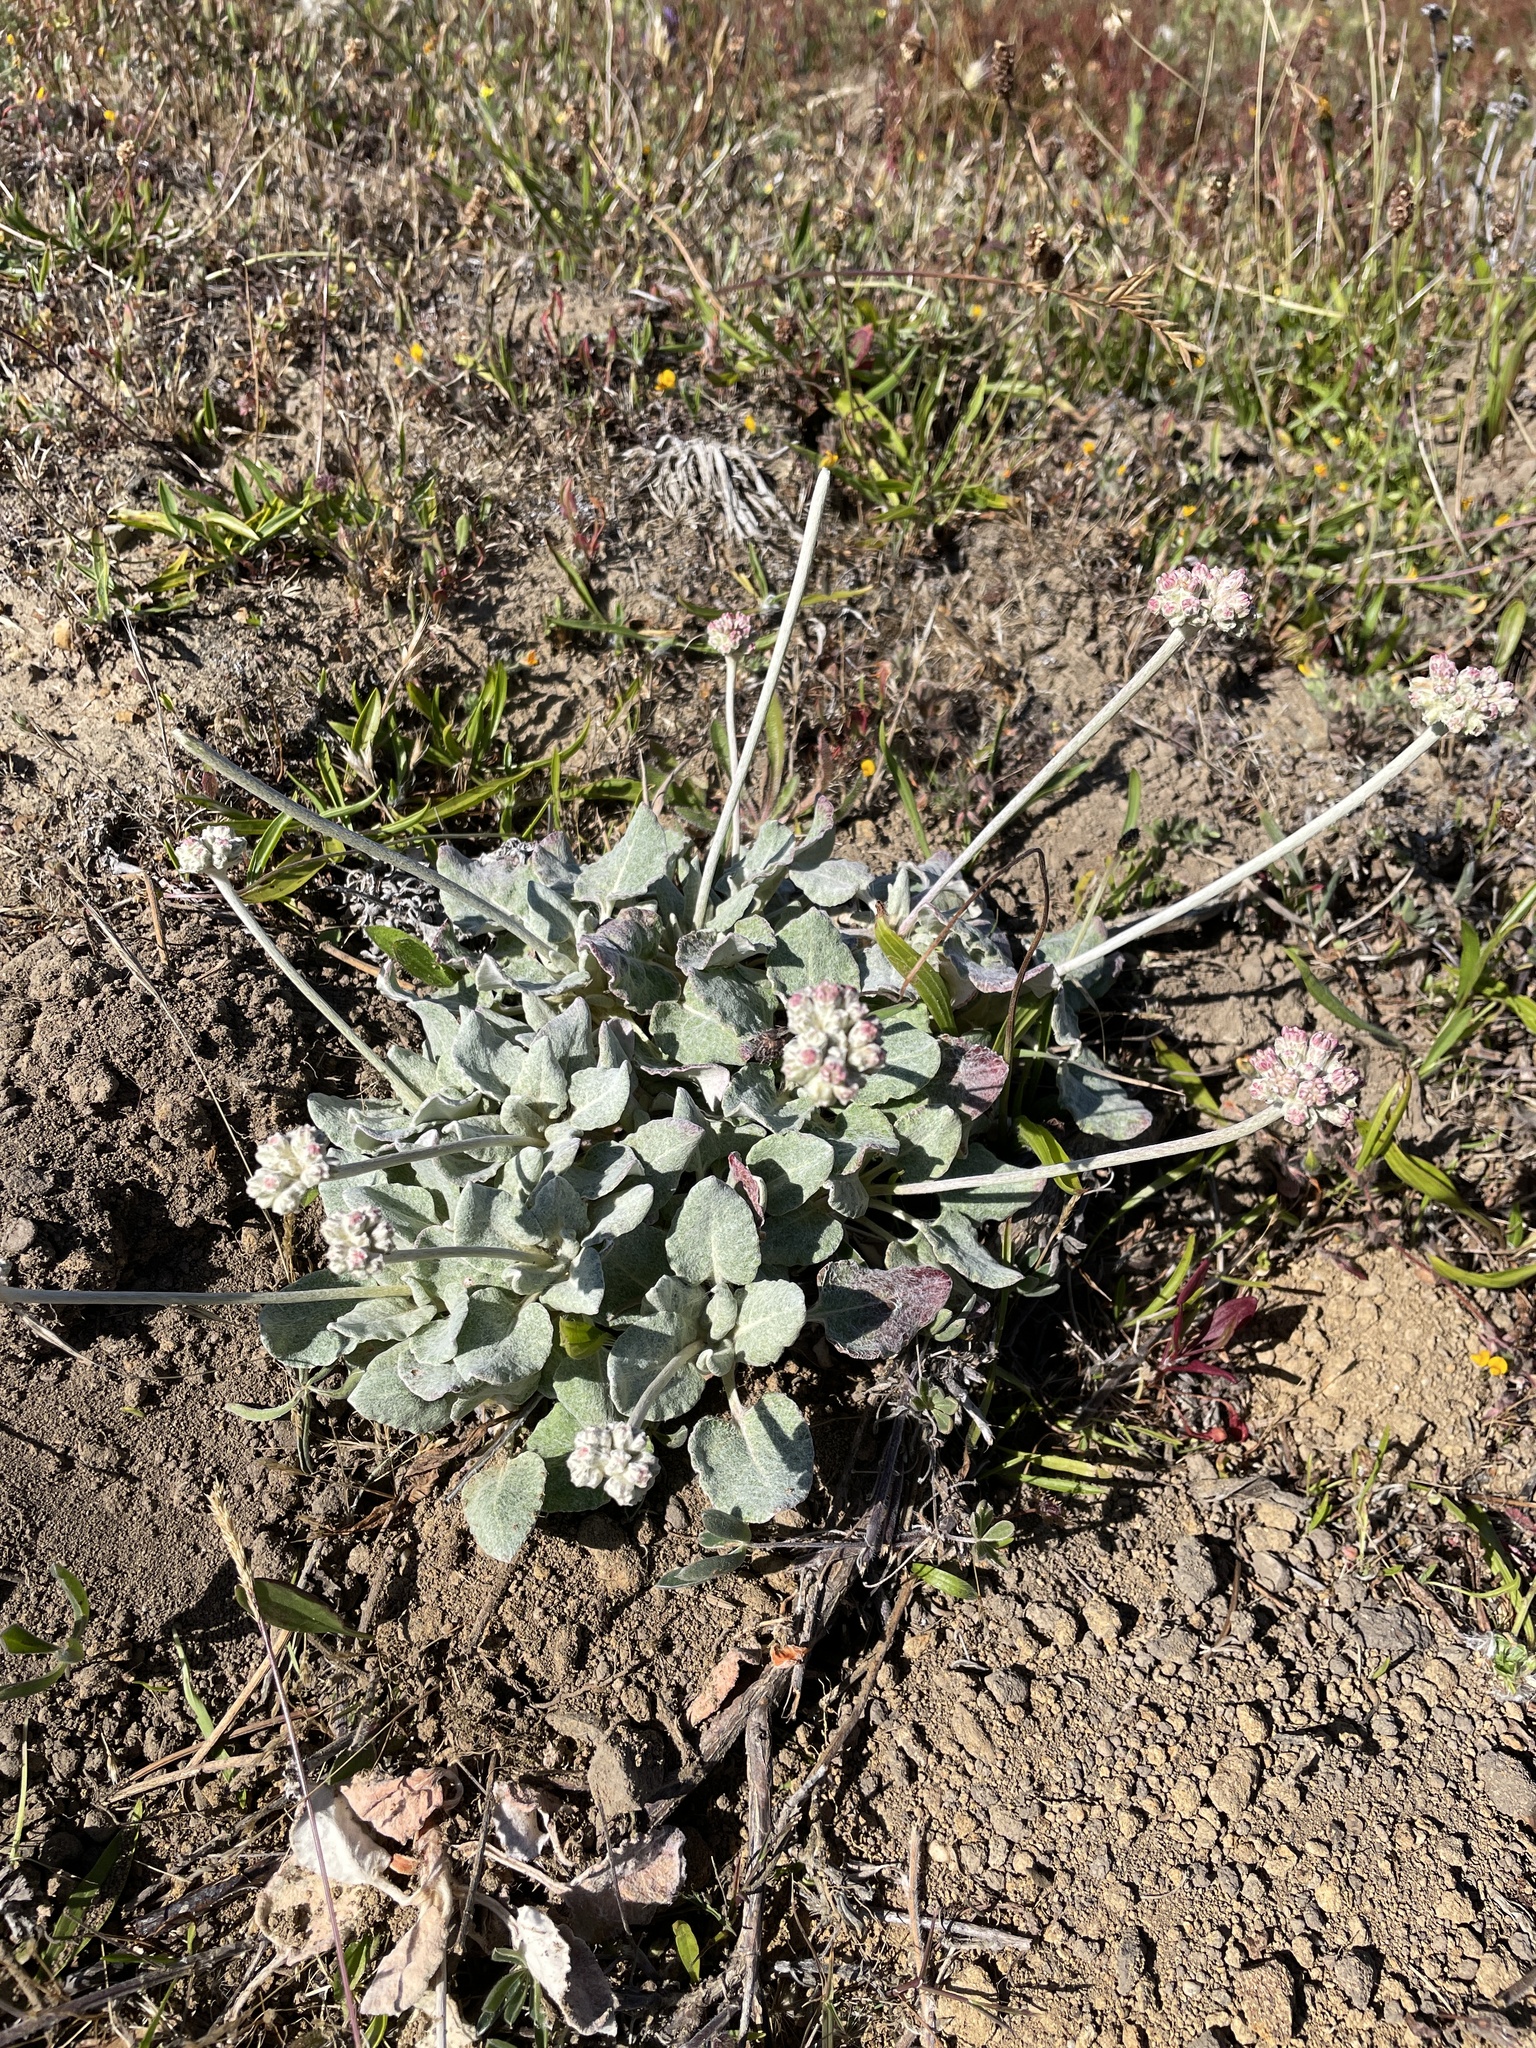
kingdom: Plantae
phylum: Tracheophyta
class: Magnoliopsida
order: Caryophyllales
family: Polygonaceae
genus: Eriogonum
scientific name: Eriogonum latifolium
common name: Seaside wild buckwheat
